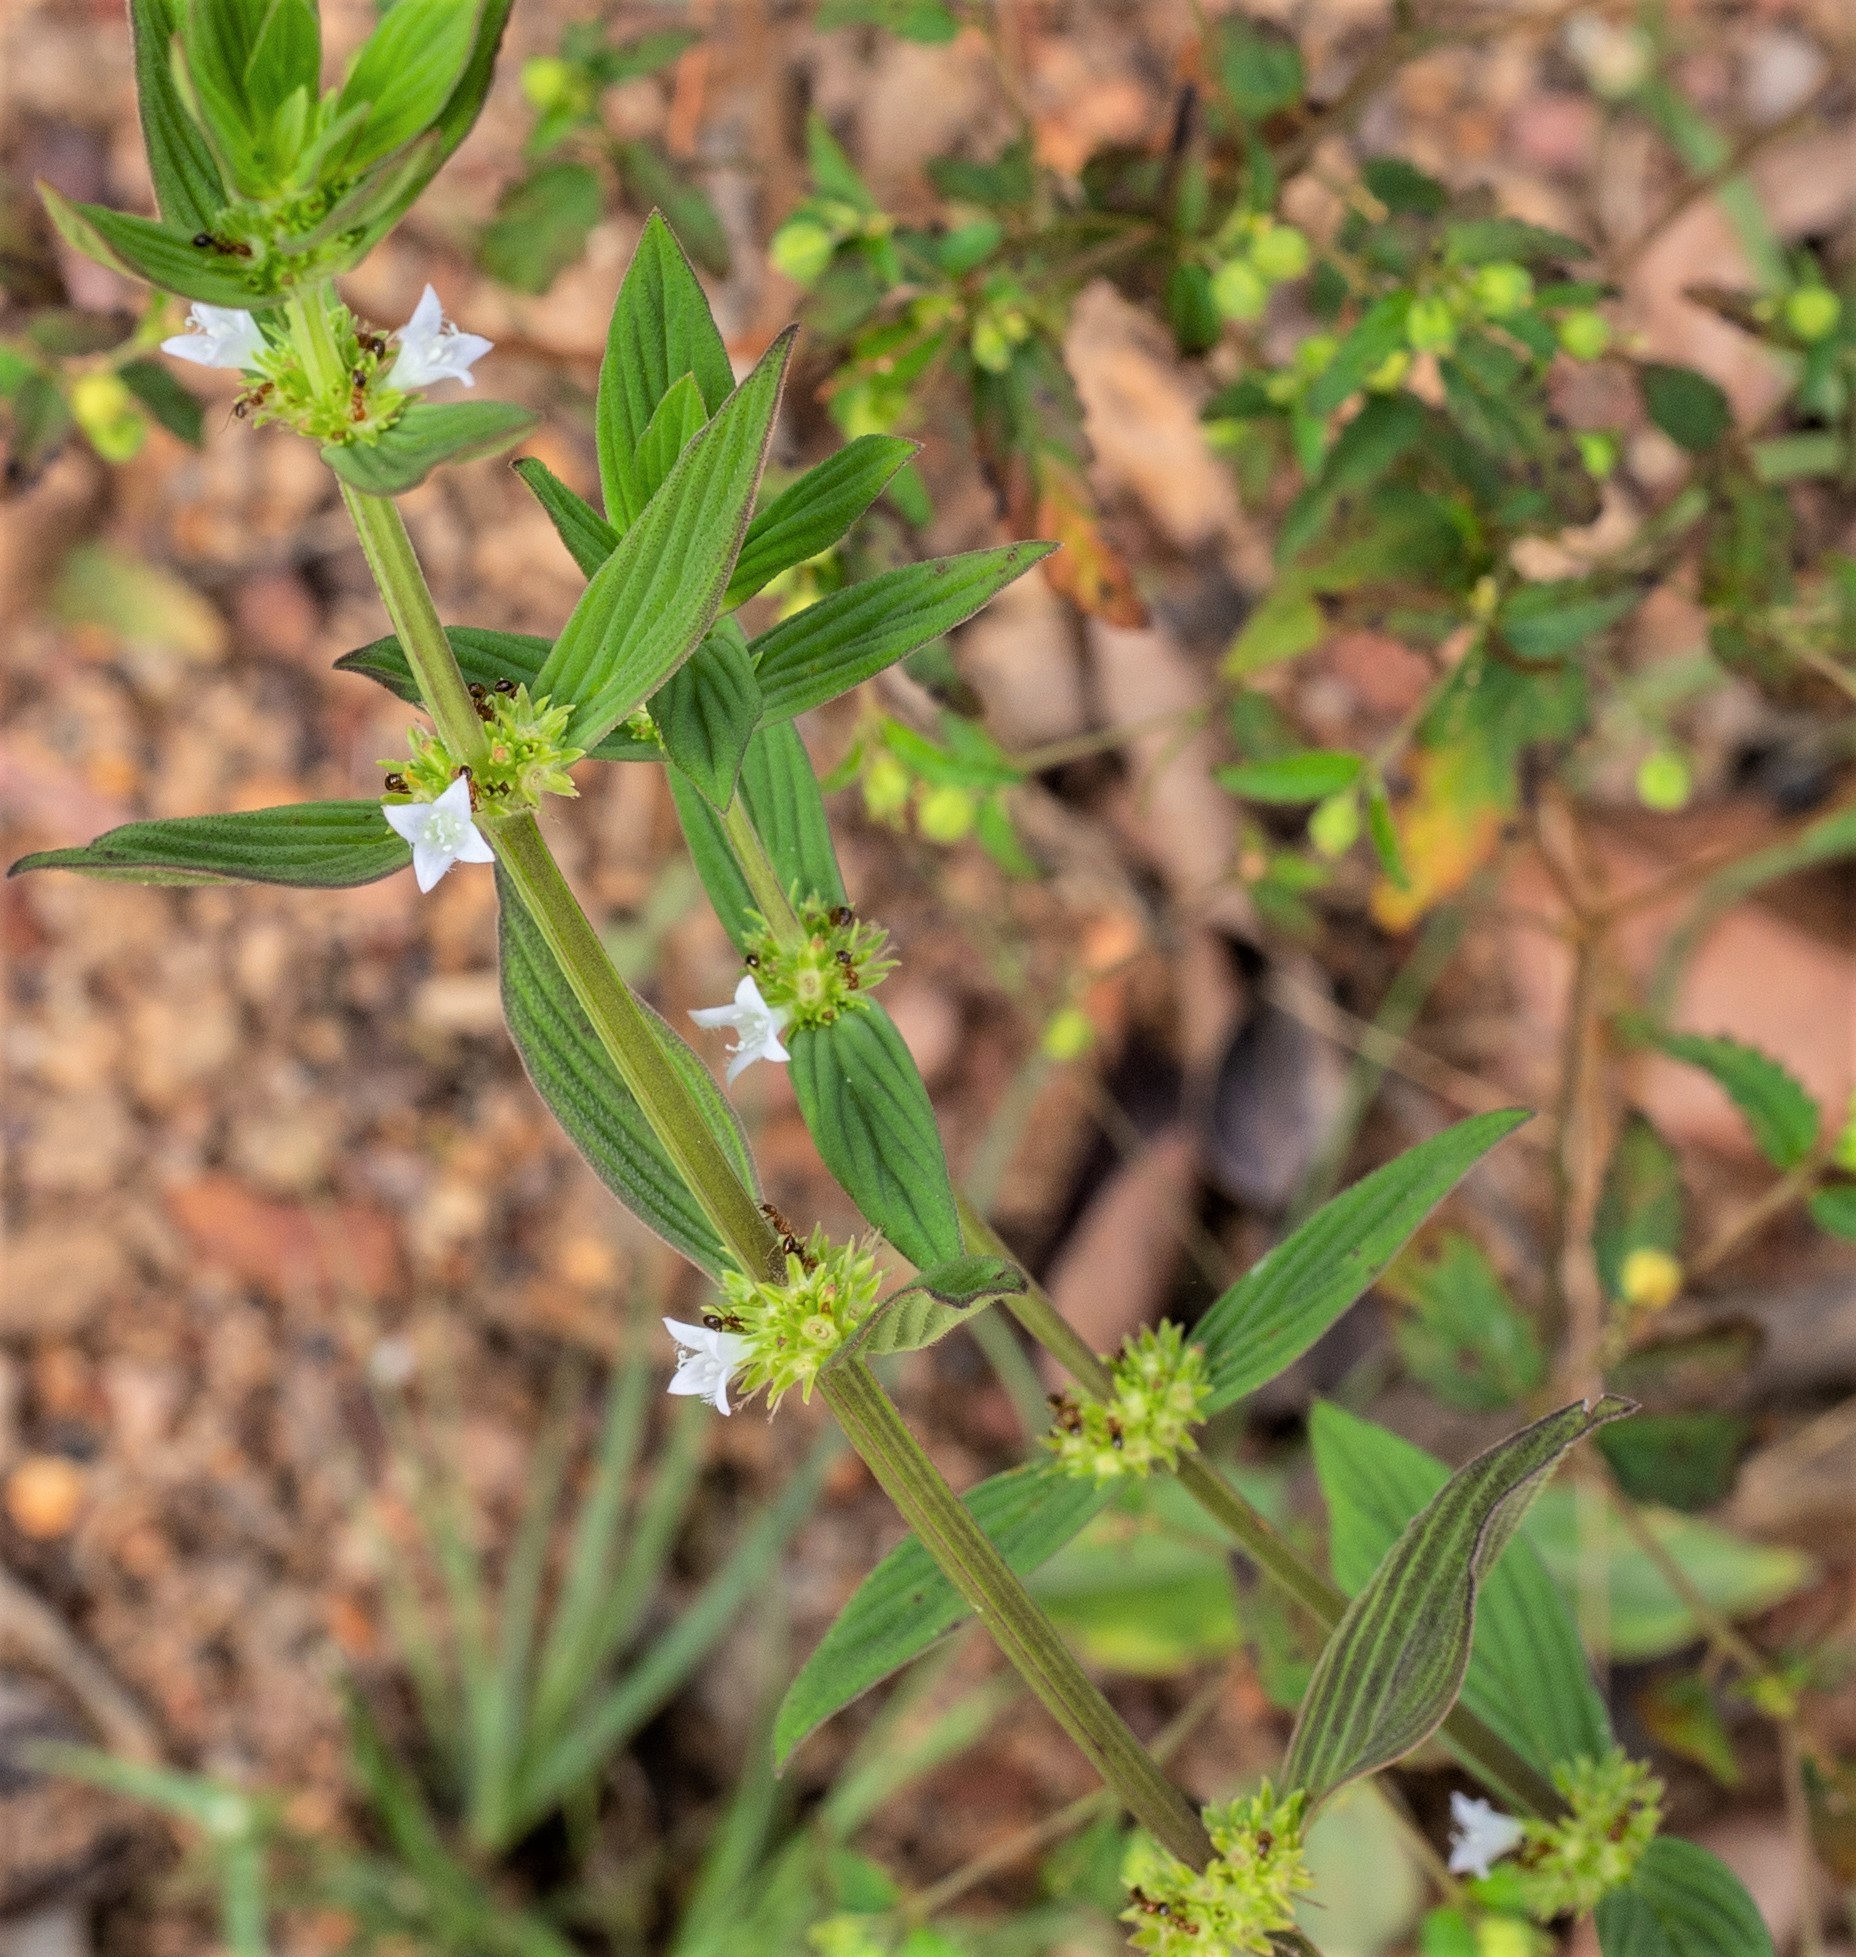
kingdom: Plantae
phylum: Tracheophyta
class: Magnoliopsida
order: Gentianales
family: Rubiaceae
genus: Spermacoce
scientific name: Spermacoce latifolia
